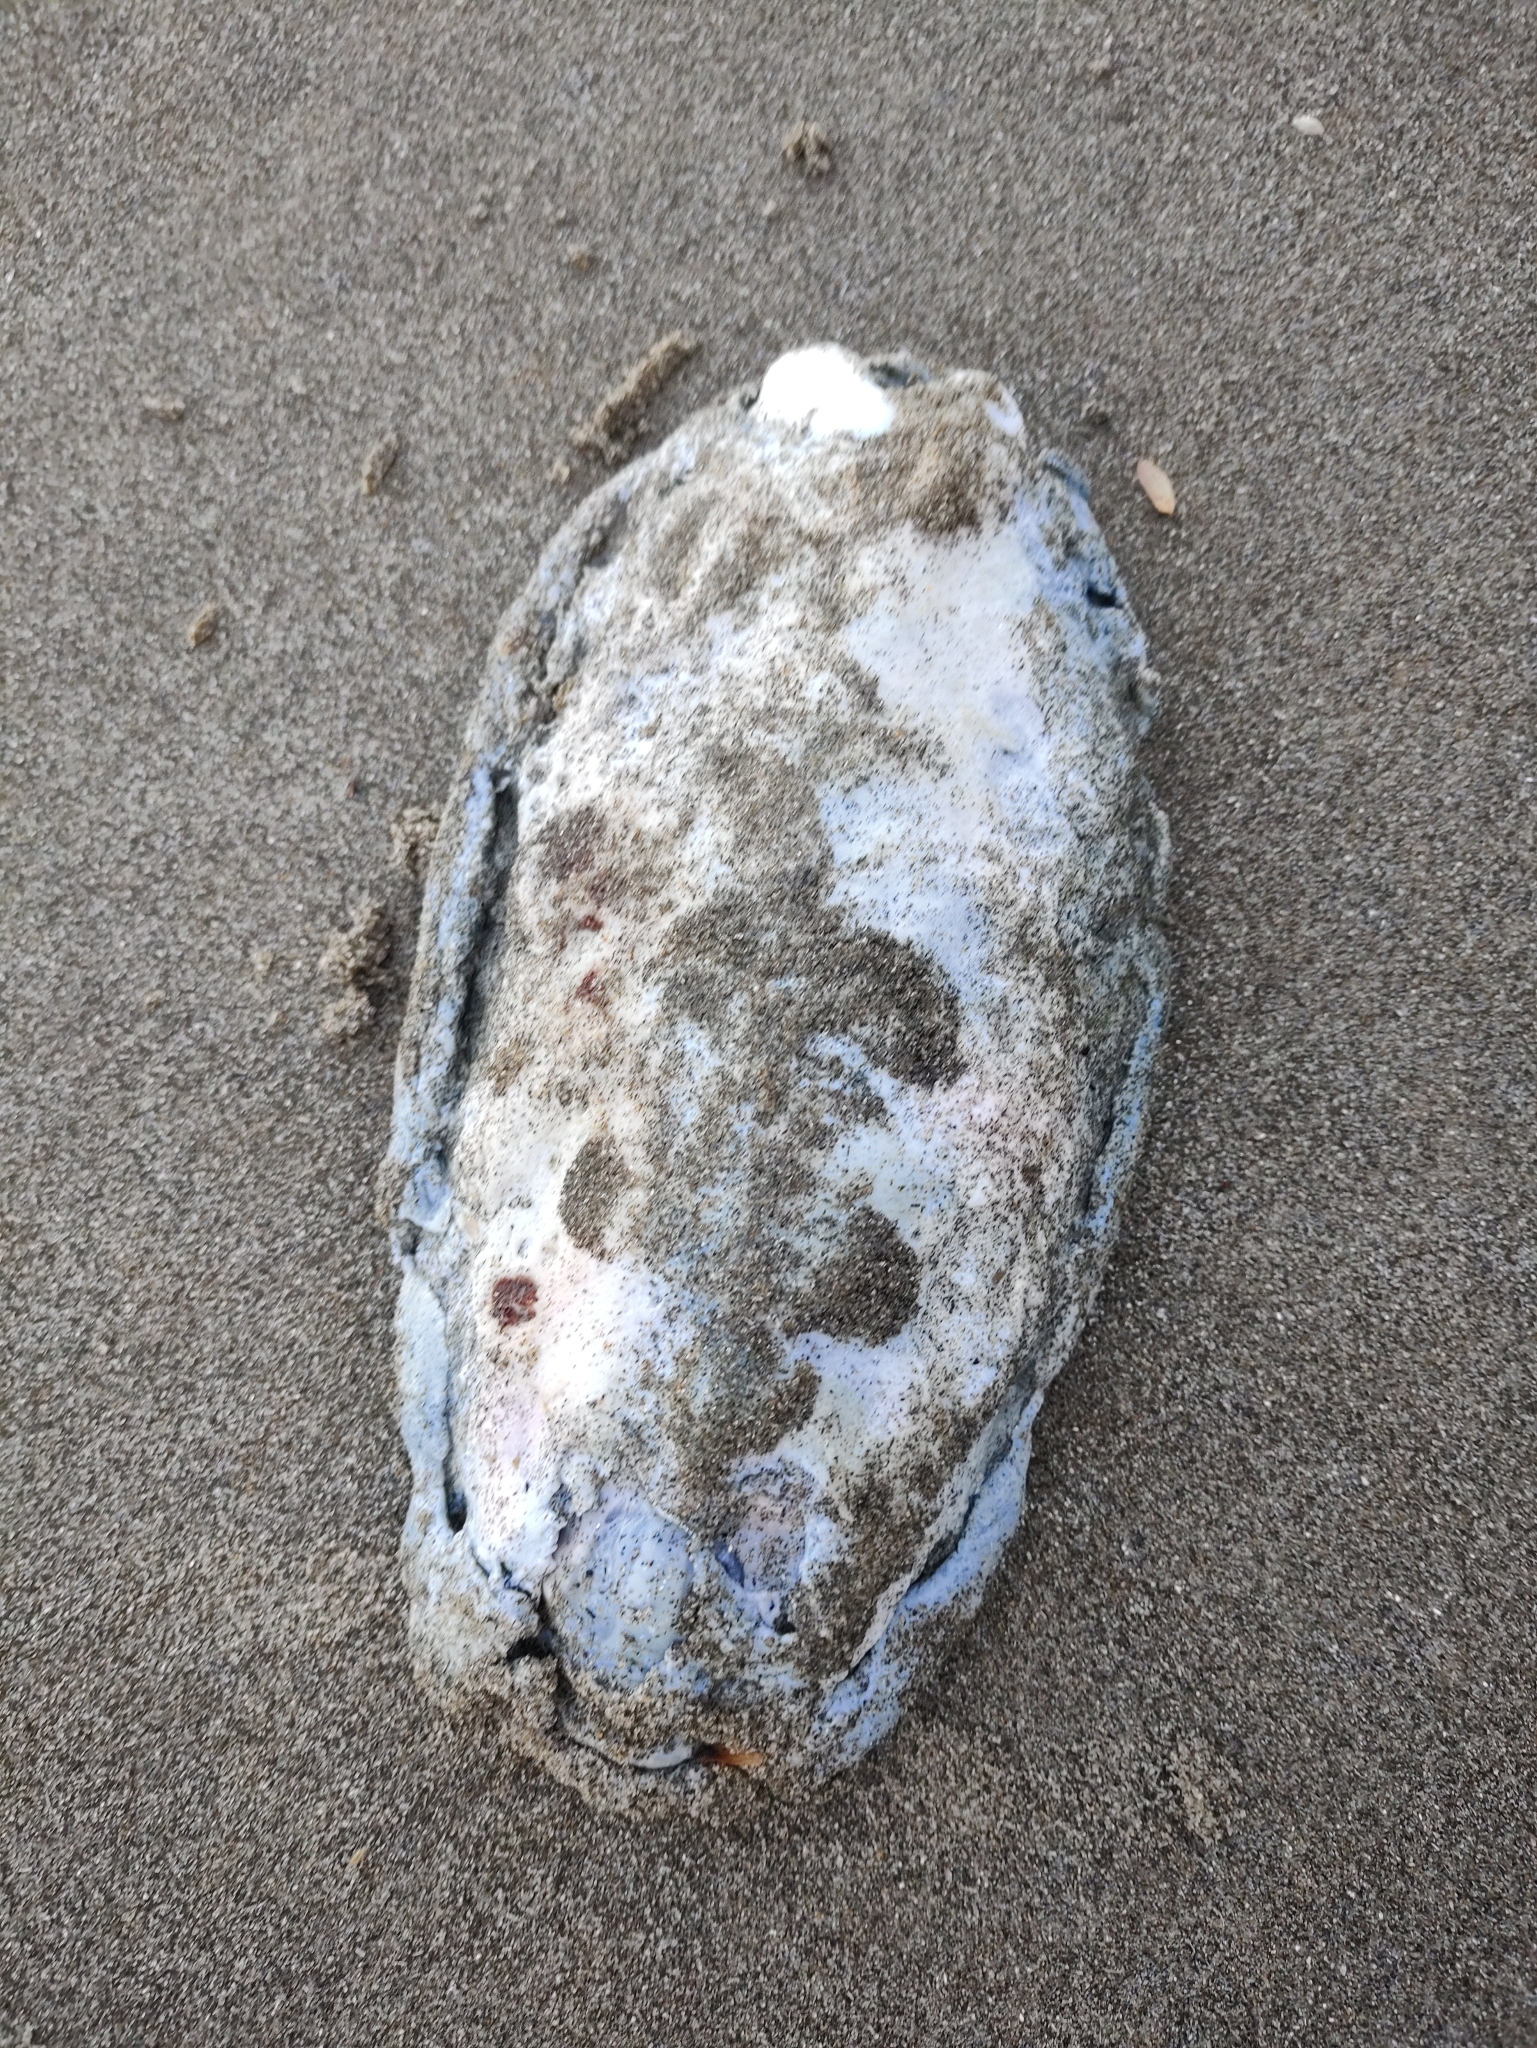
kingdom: Animalia
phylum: Mollusca
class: Polyplacophora
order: Chitonida
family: Acanthochitonidae
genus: Cryptochiton
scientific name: Cryptochiton stelleri
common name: Giant pacific chiton
